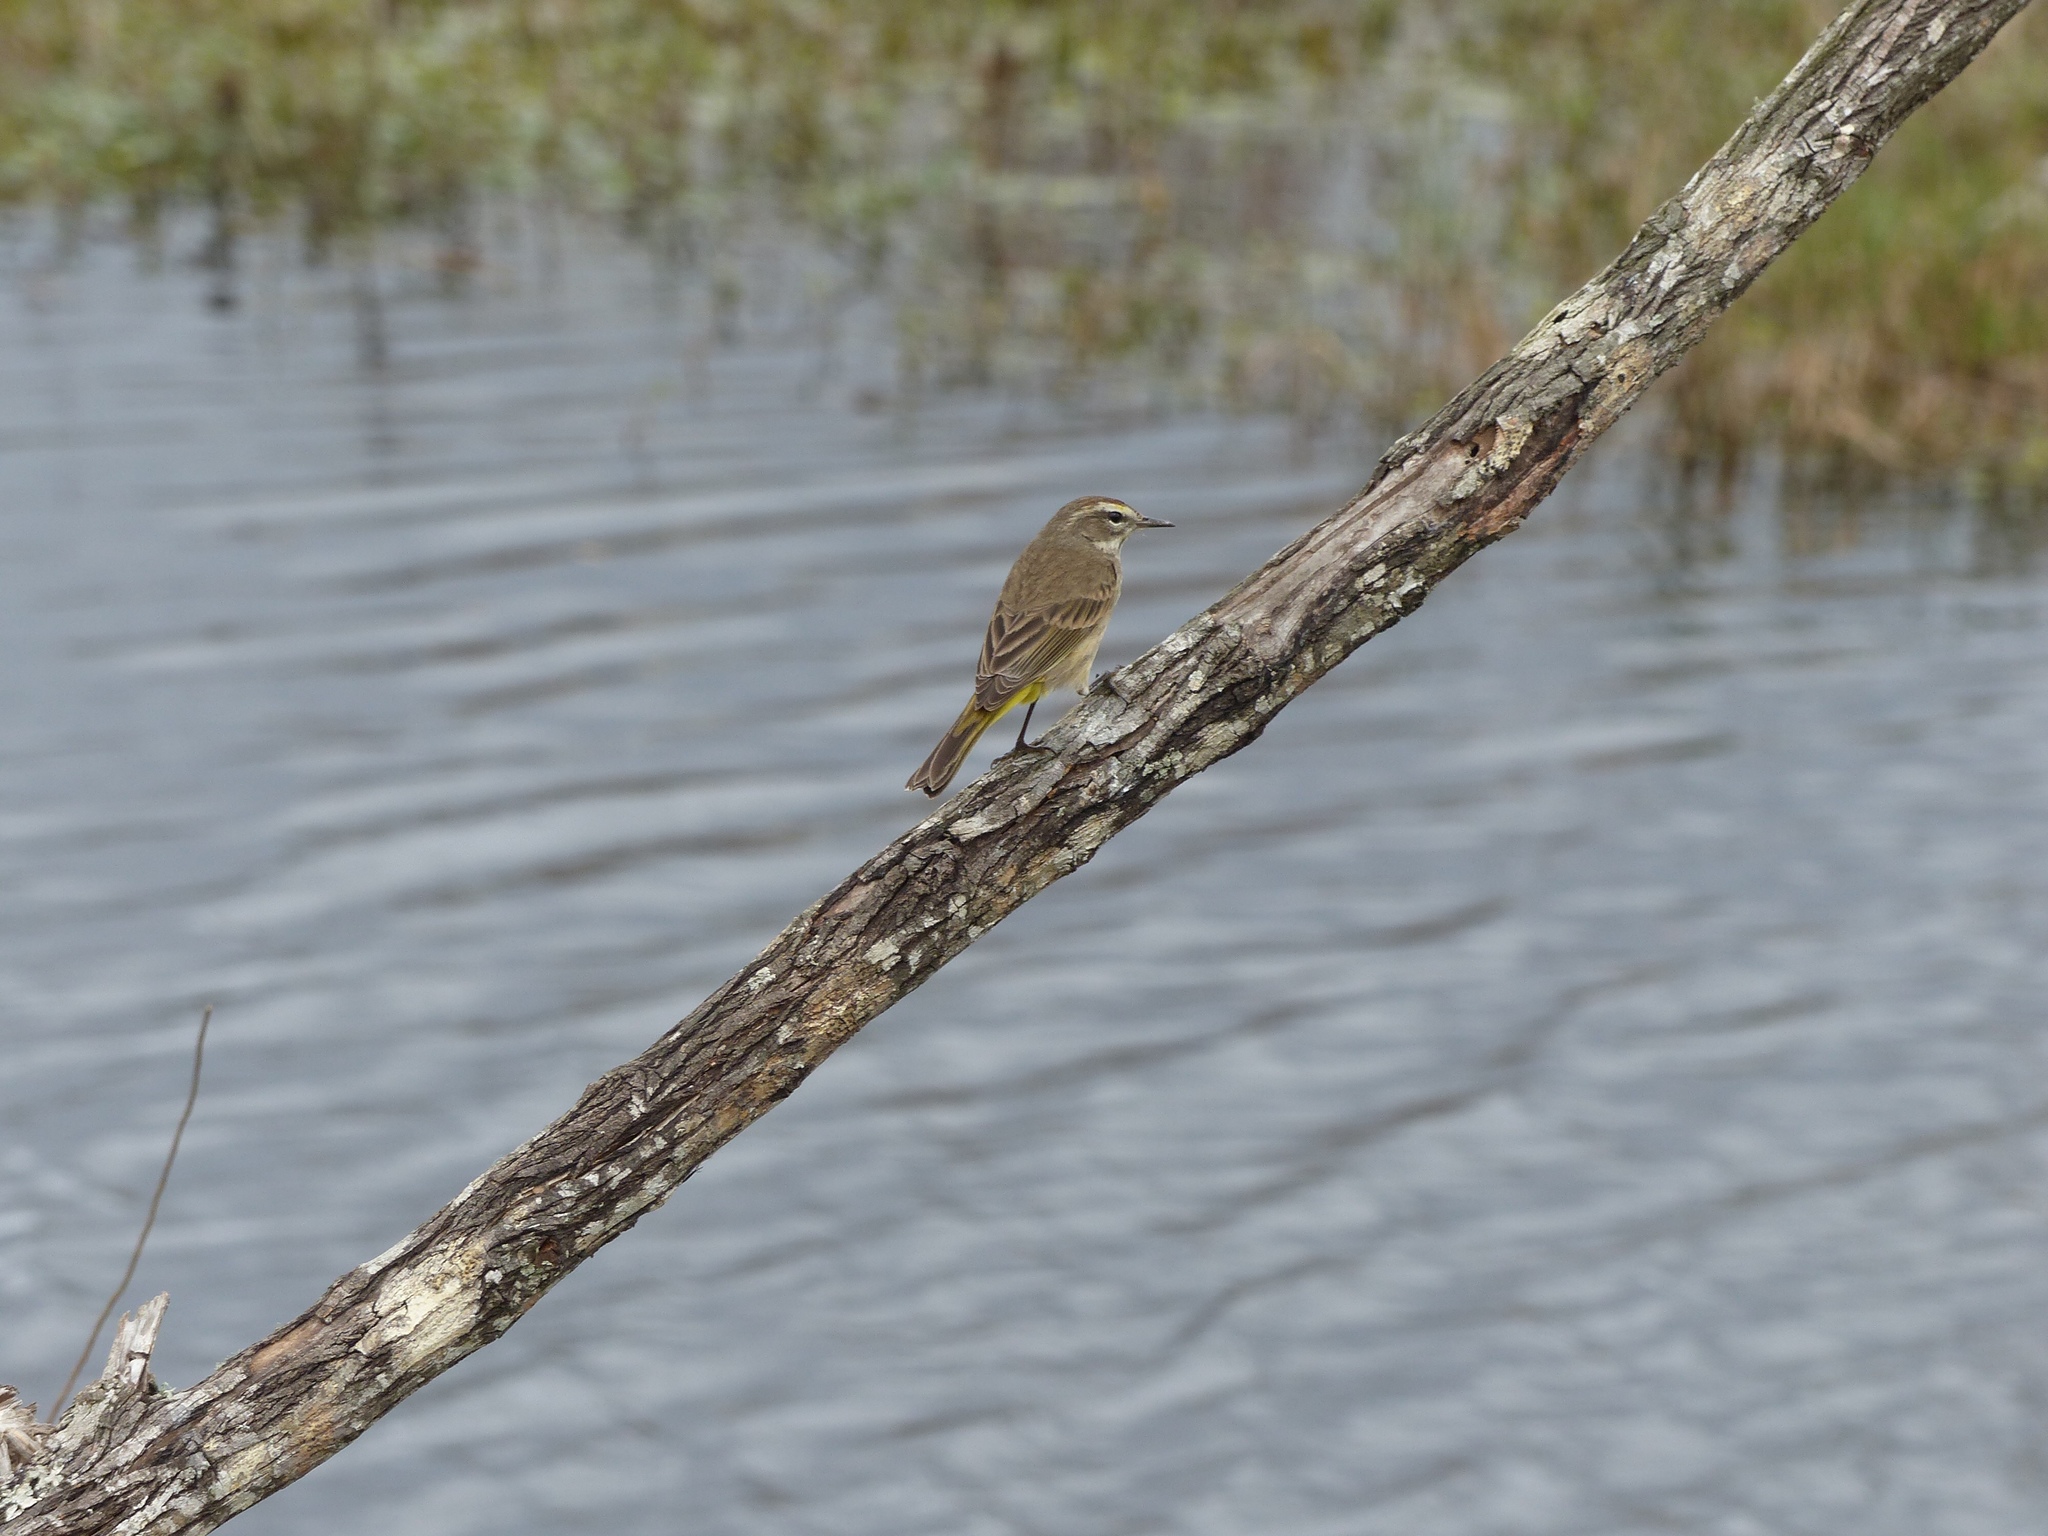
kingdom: Animalia
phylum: Chordata
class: Aves
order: Passeriformes
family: Parulidae
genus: Setophaga
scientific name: Setophaga palmarum
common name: Palm warbler
